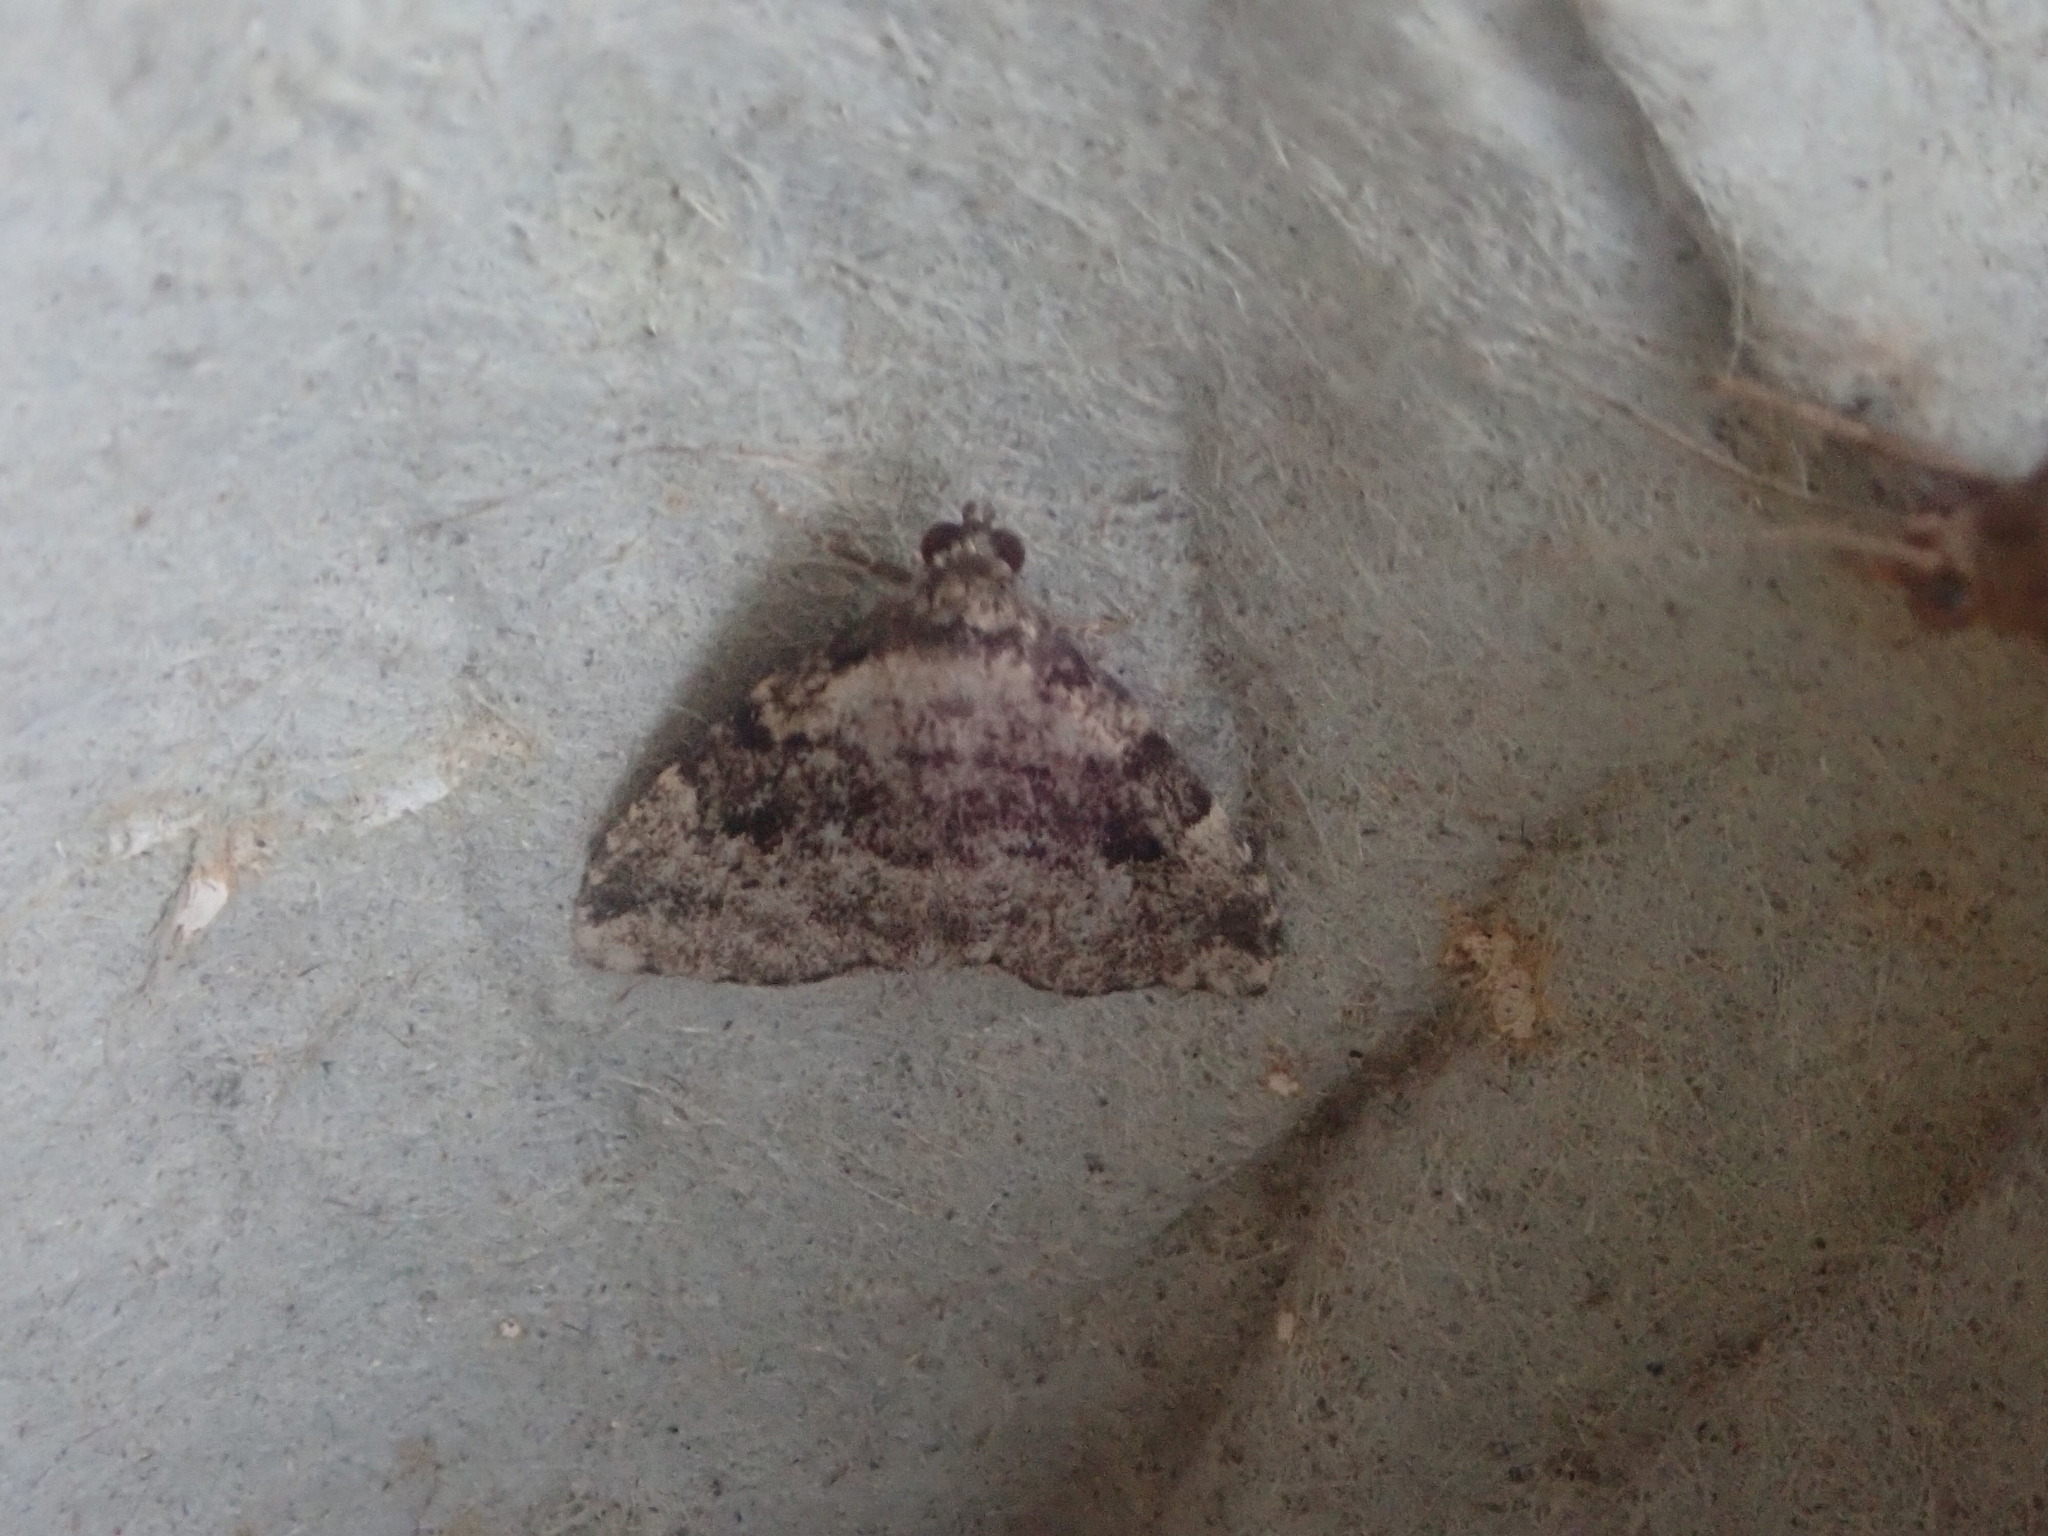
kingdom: Animalia
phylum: Arthropoda
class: Insecta
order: Lepidoptera
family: Erebidae
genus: Dyspyralis
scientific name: Dyspyralis illocata
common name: Visitation moth
